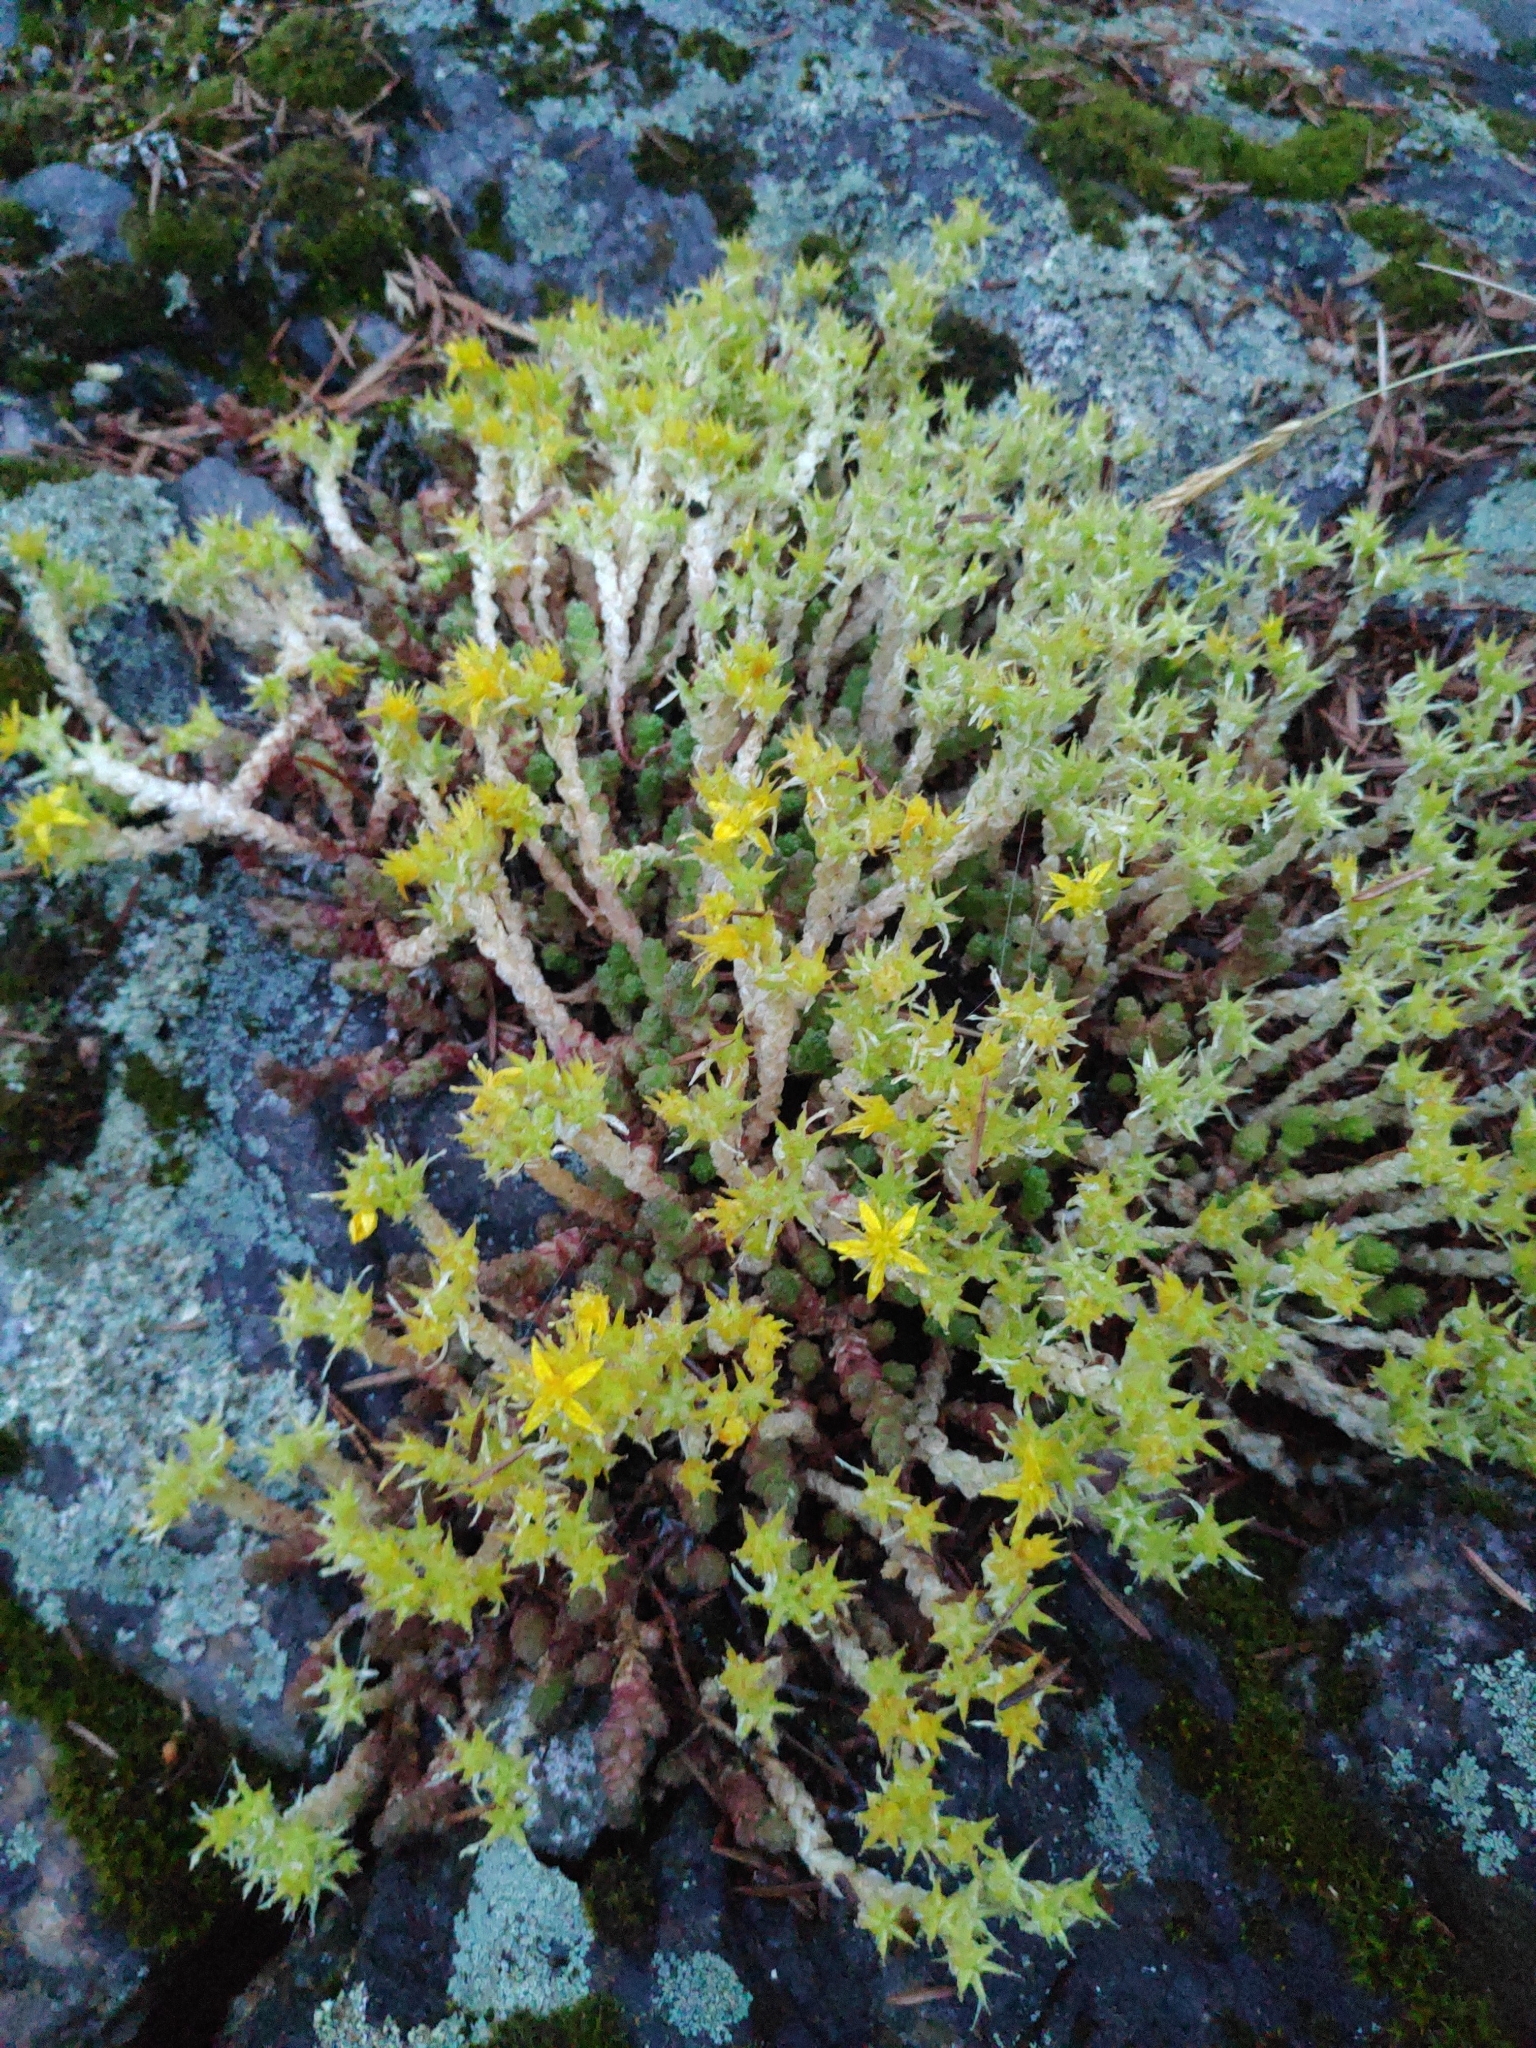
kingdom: Plantae
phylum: Tracheophyta
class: Magnoliopsida
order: Saxifragales
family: Crassulaceae
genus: Sedum
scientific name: Sedum acre
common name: Biting stonecrop
